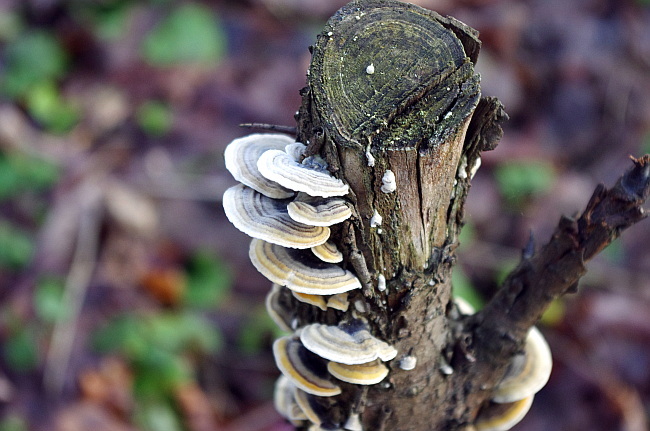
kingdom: Fungi
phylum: Basidiomycota
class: Agaricomycetes
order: Polyporales
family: Polyporaceae
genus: Trametes
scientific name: Trametes versicolor
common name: Turkeytail
